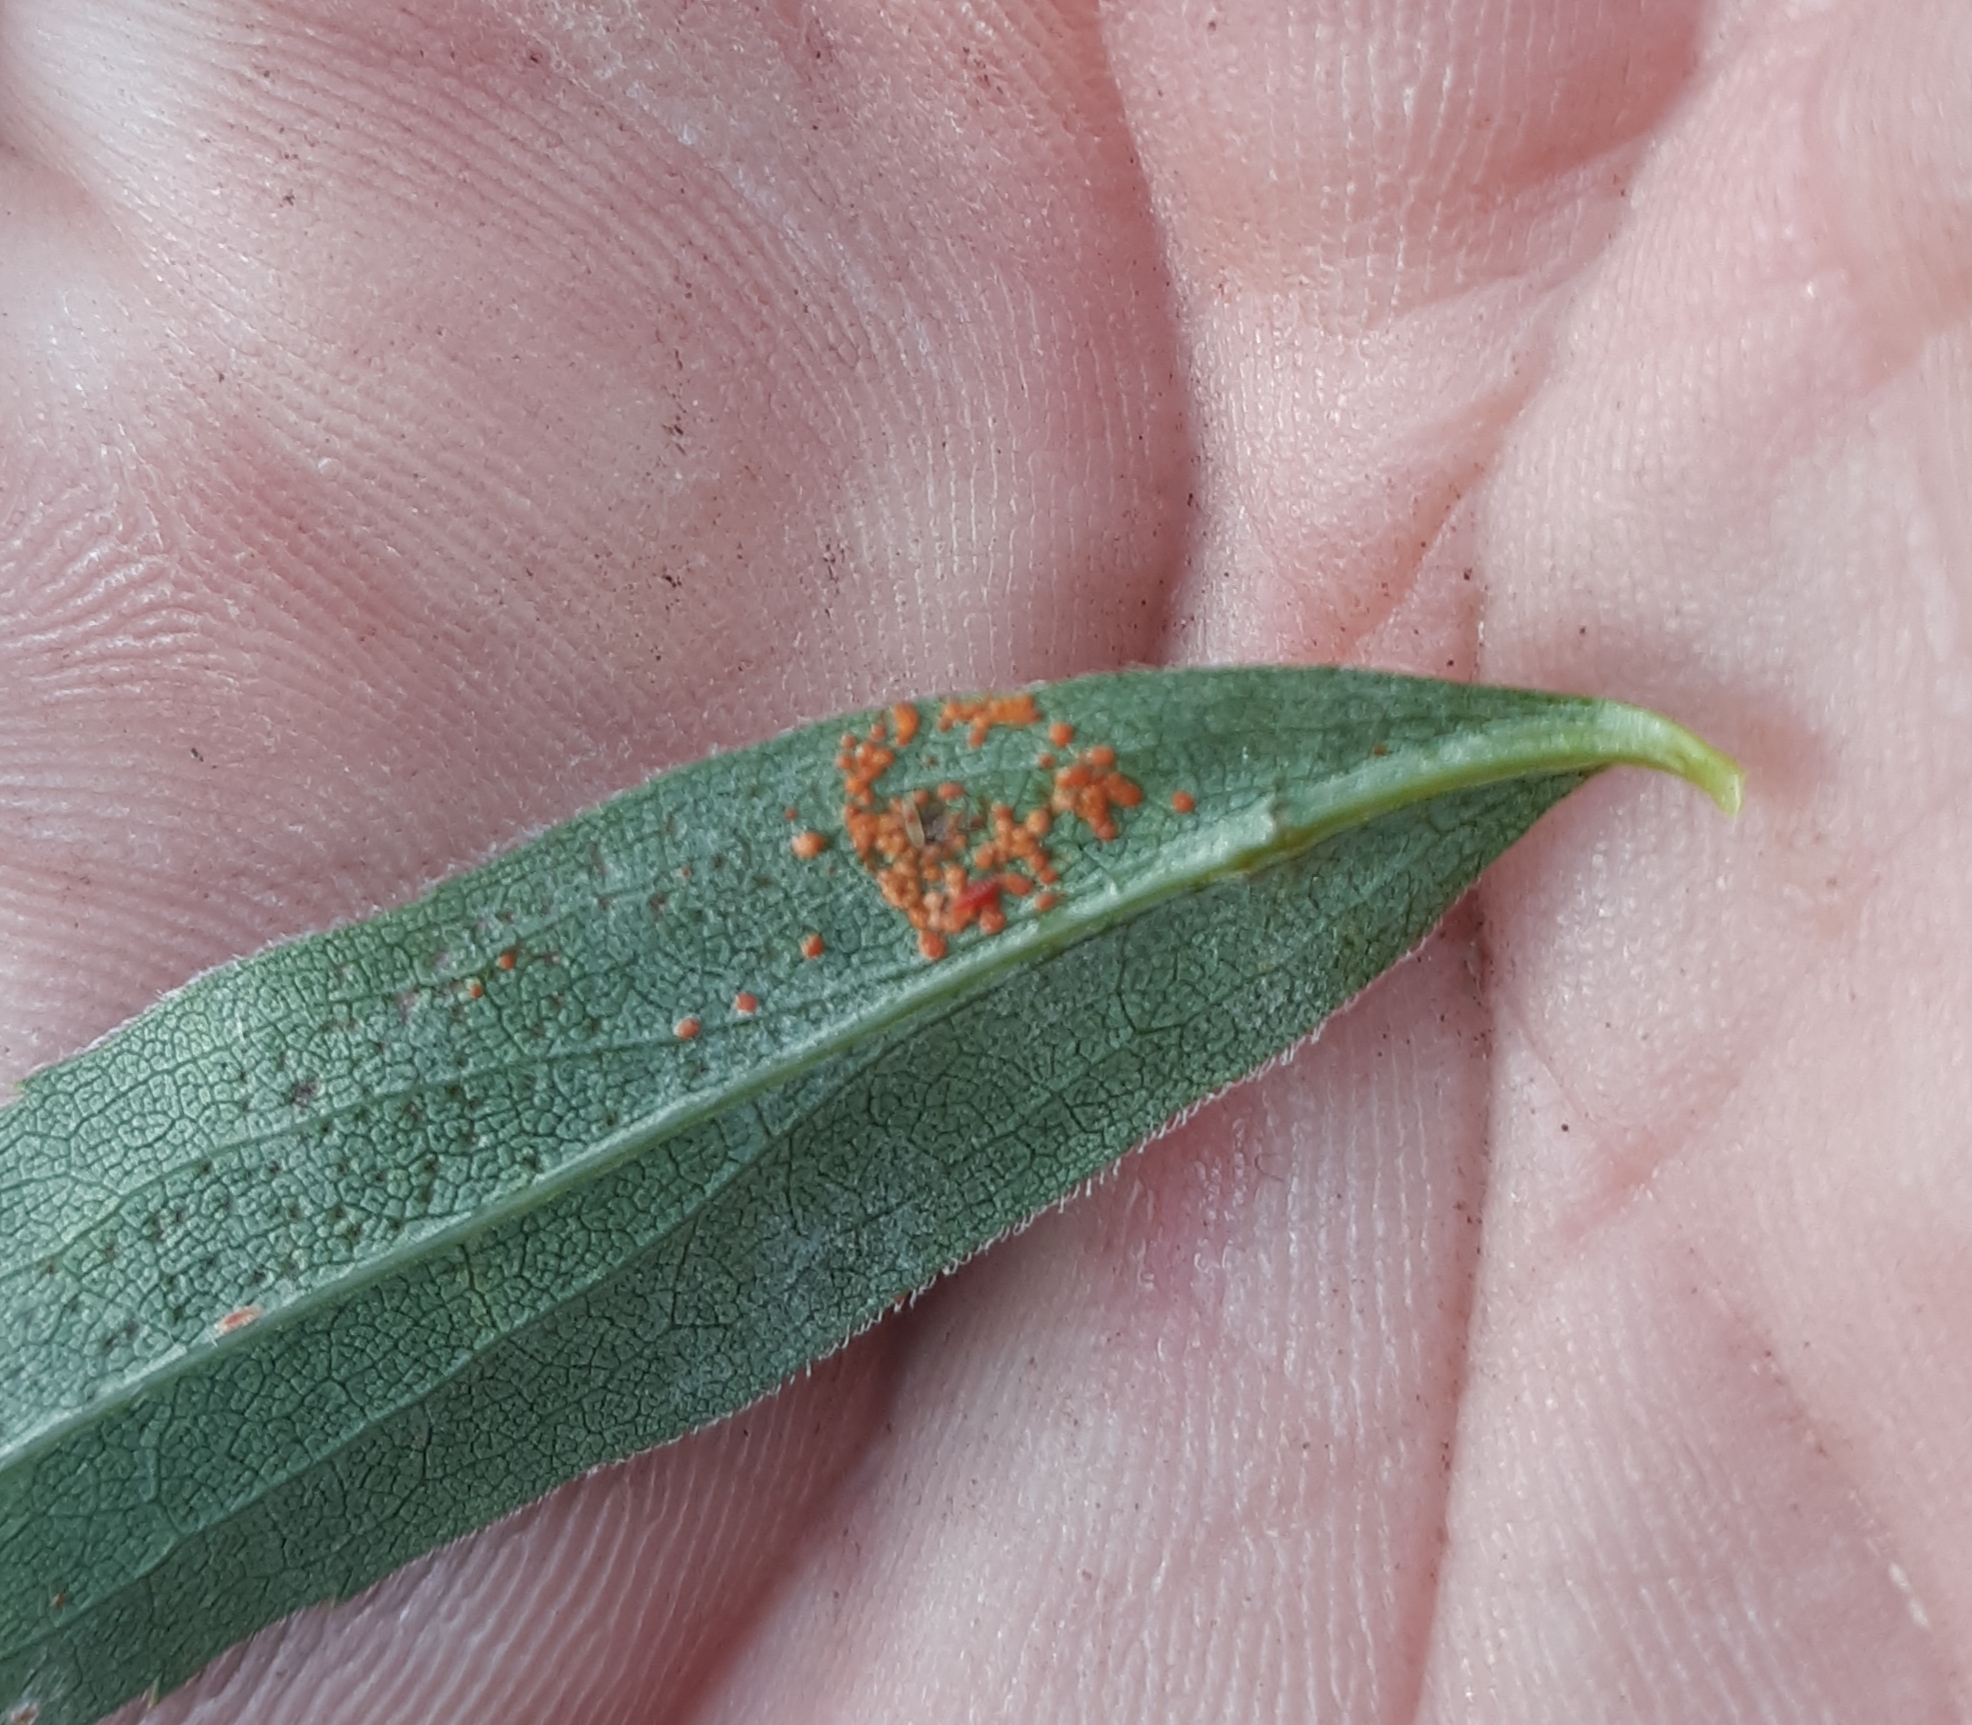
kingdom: Fungi
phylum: Basidiomycota
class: Pucciniomycetes
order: Pucciniales
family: Coleosporiaceae
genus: Coleosporium
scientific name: Coleosporium asterum
